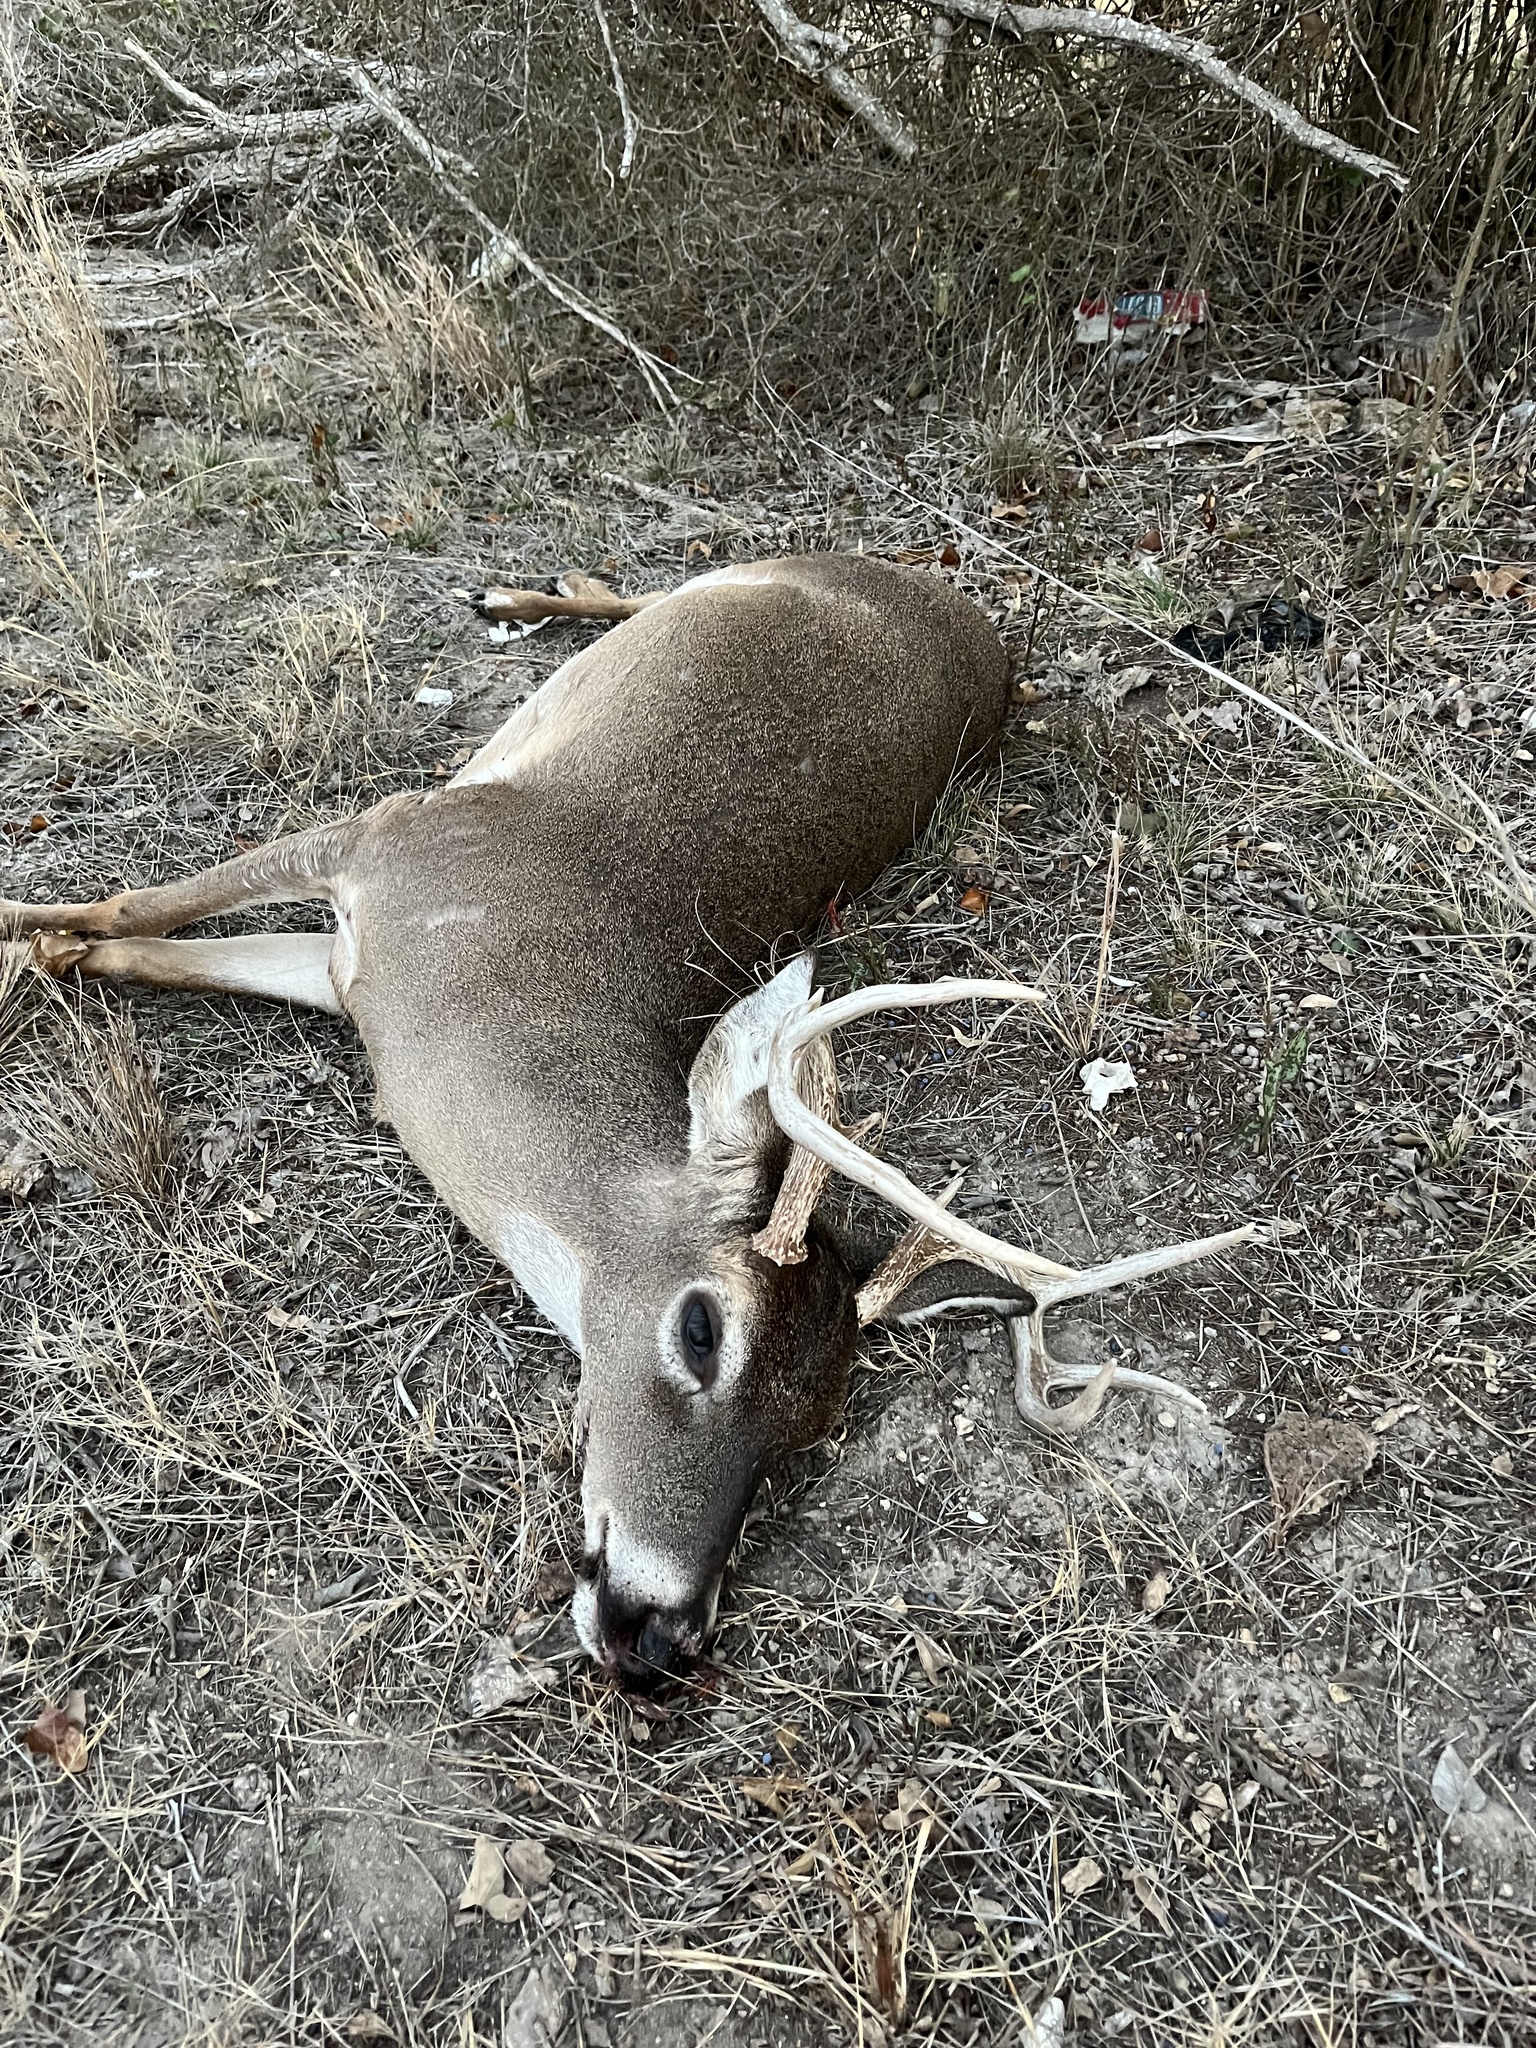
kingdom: Animalia
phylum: Chordata
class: Mammalia
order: Artiodactyla
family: Cervidae
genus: Odocoileus
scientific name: Odocoileus virginianus
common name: White-tailed deer
